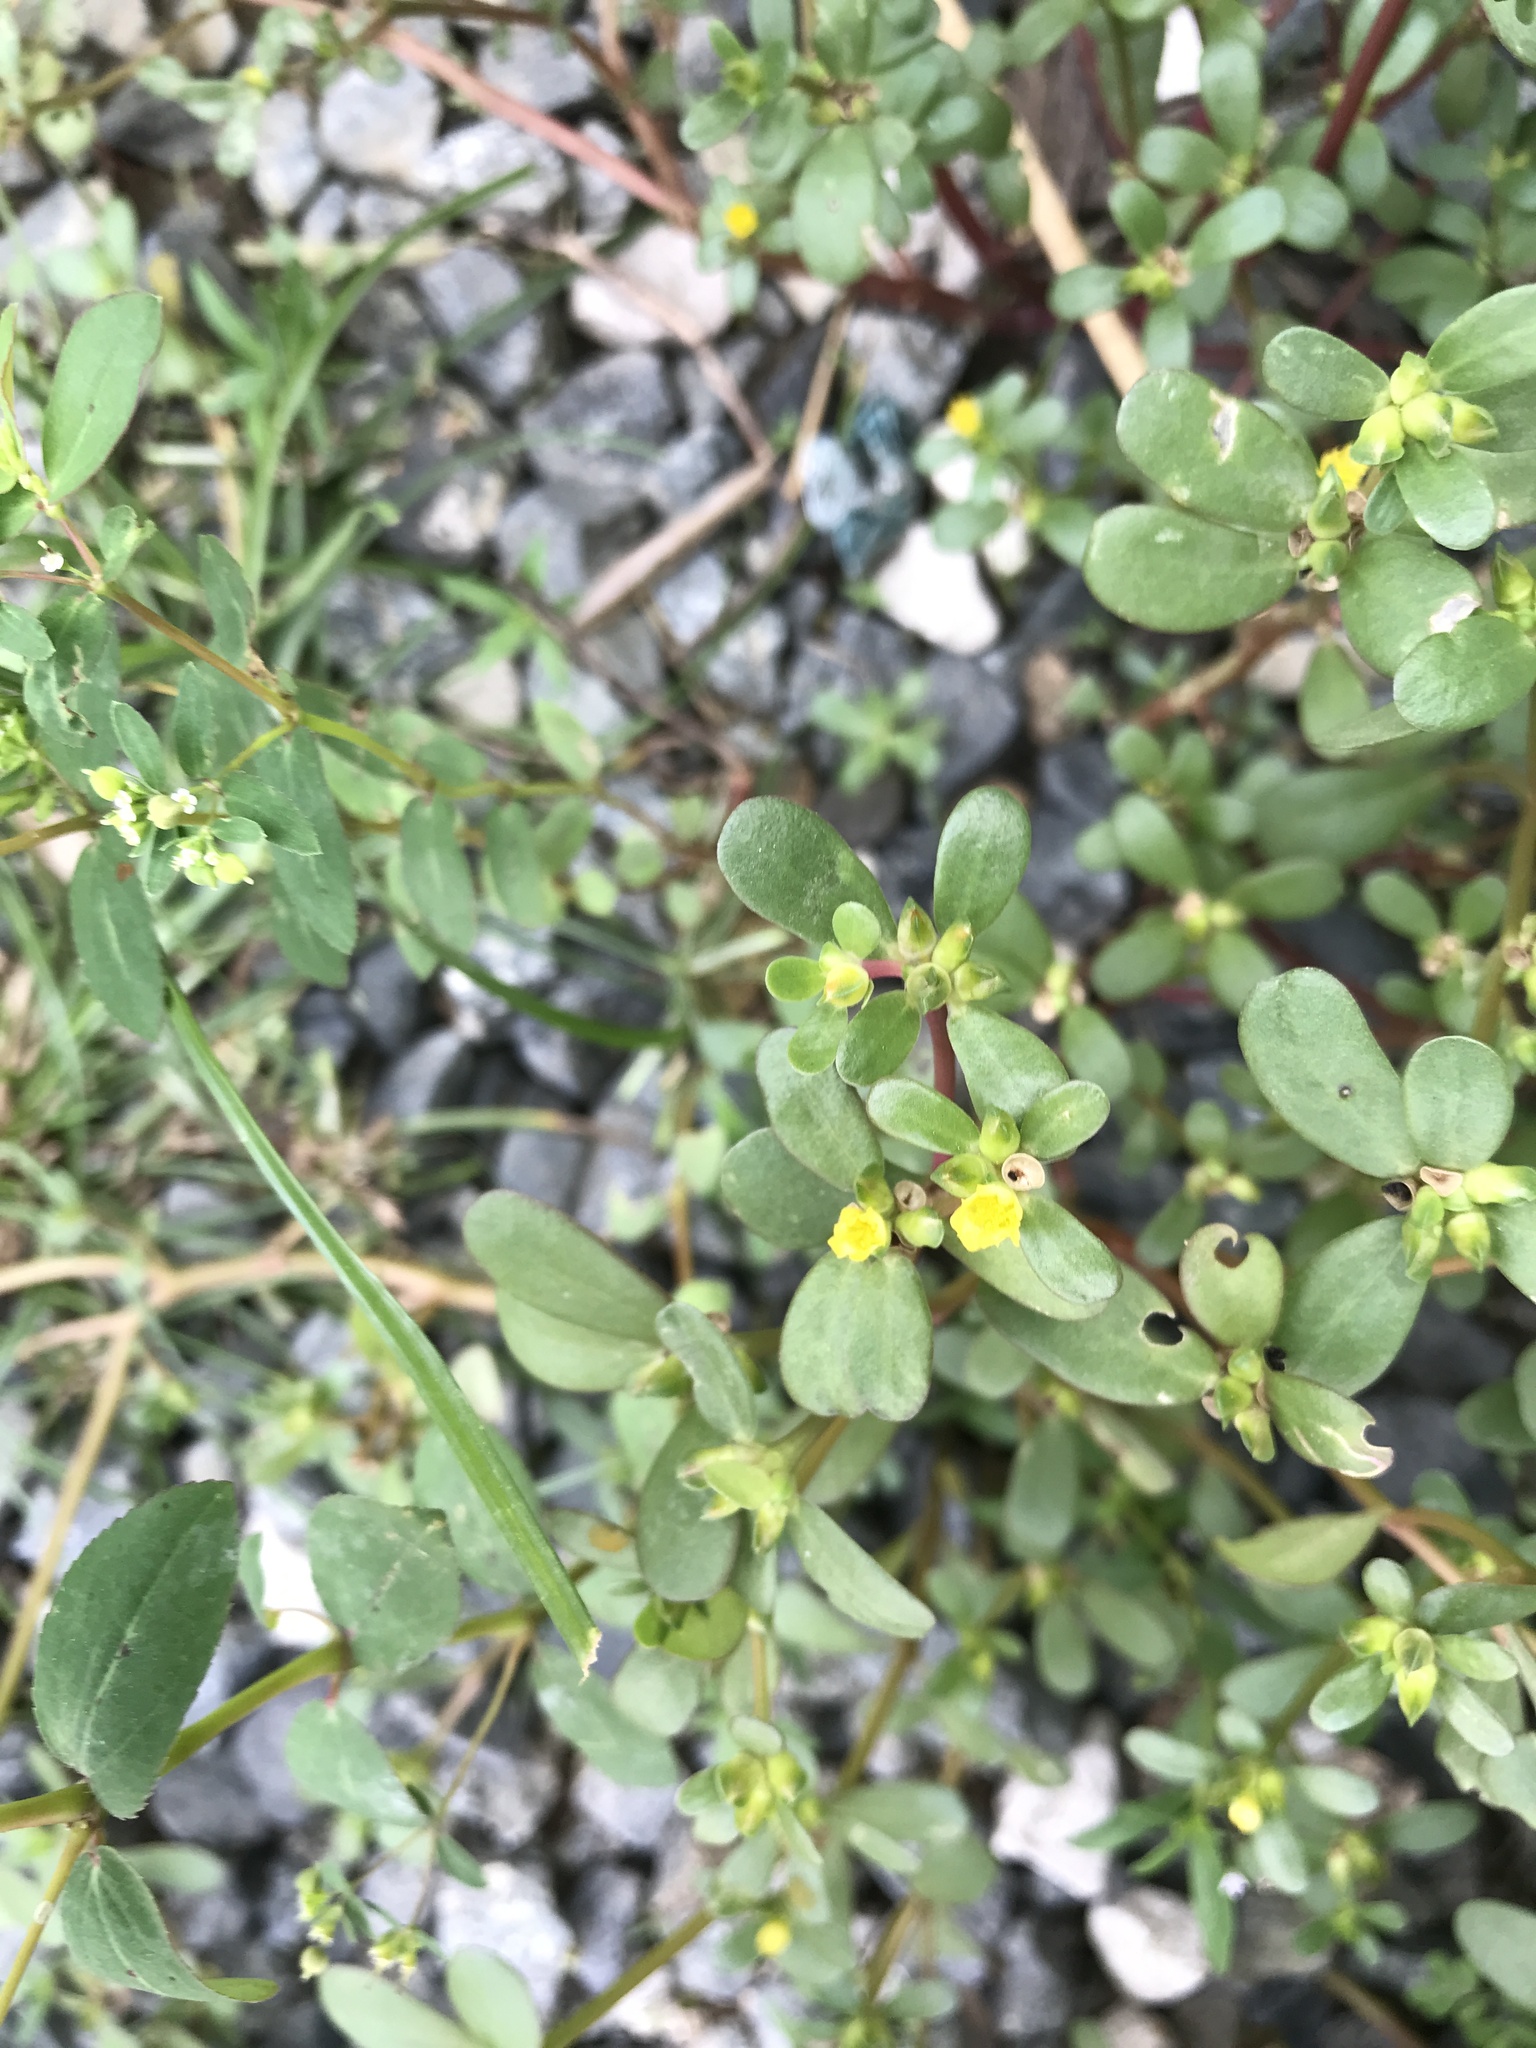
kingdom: Plantae
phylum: Tracheophyta
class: Magnoliopsida
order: Caryophyllales
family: Portulacaceae
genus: Portulaca
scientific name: Portulaca oleracea
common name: Common purslane
